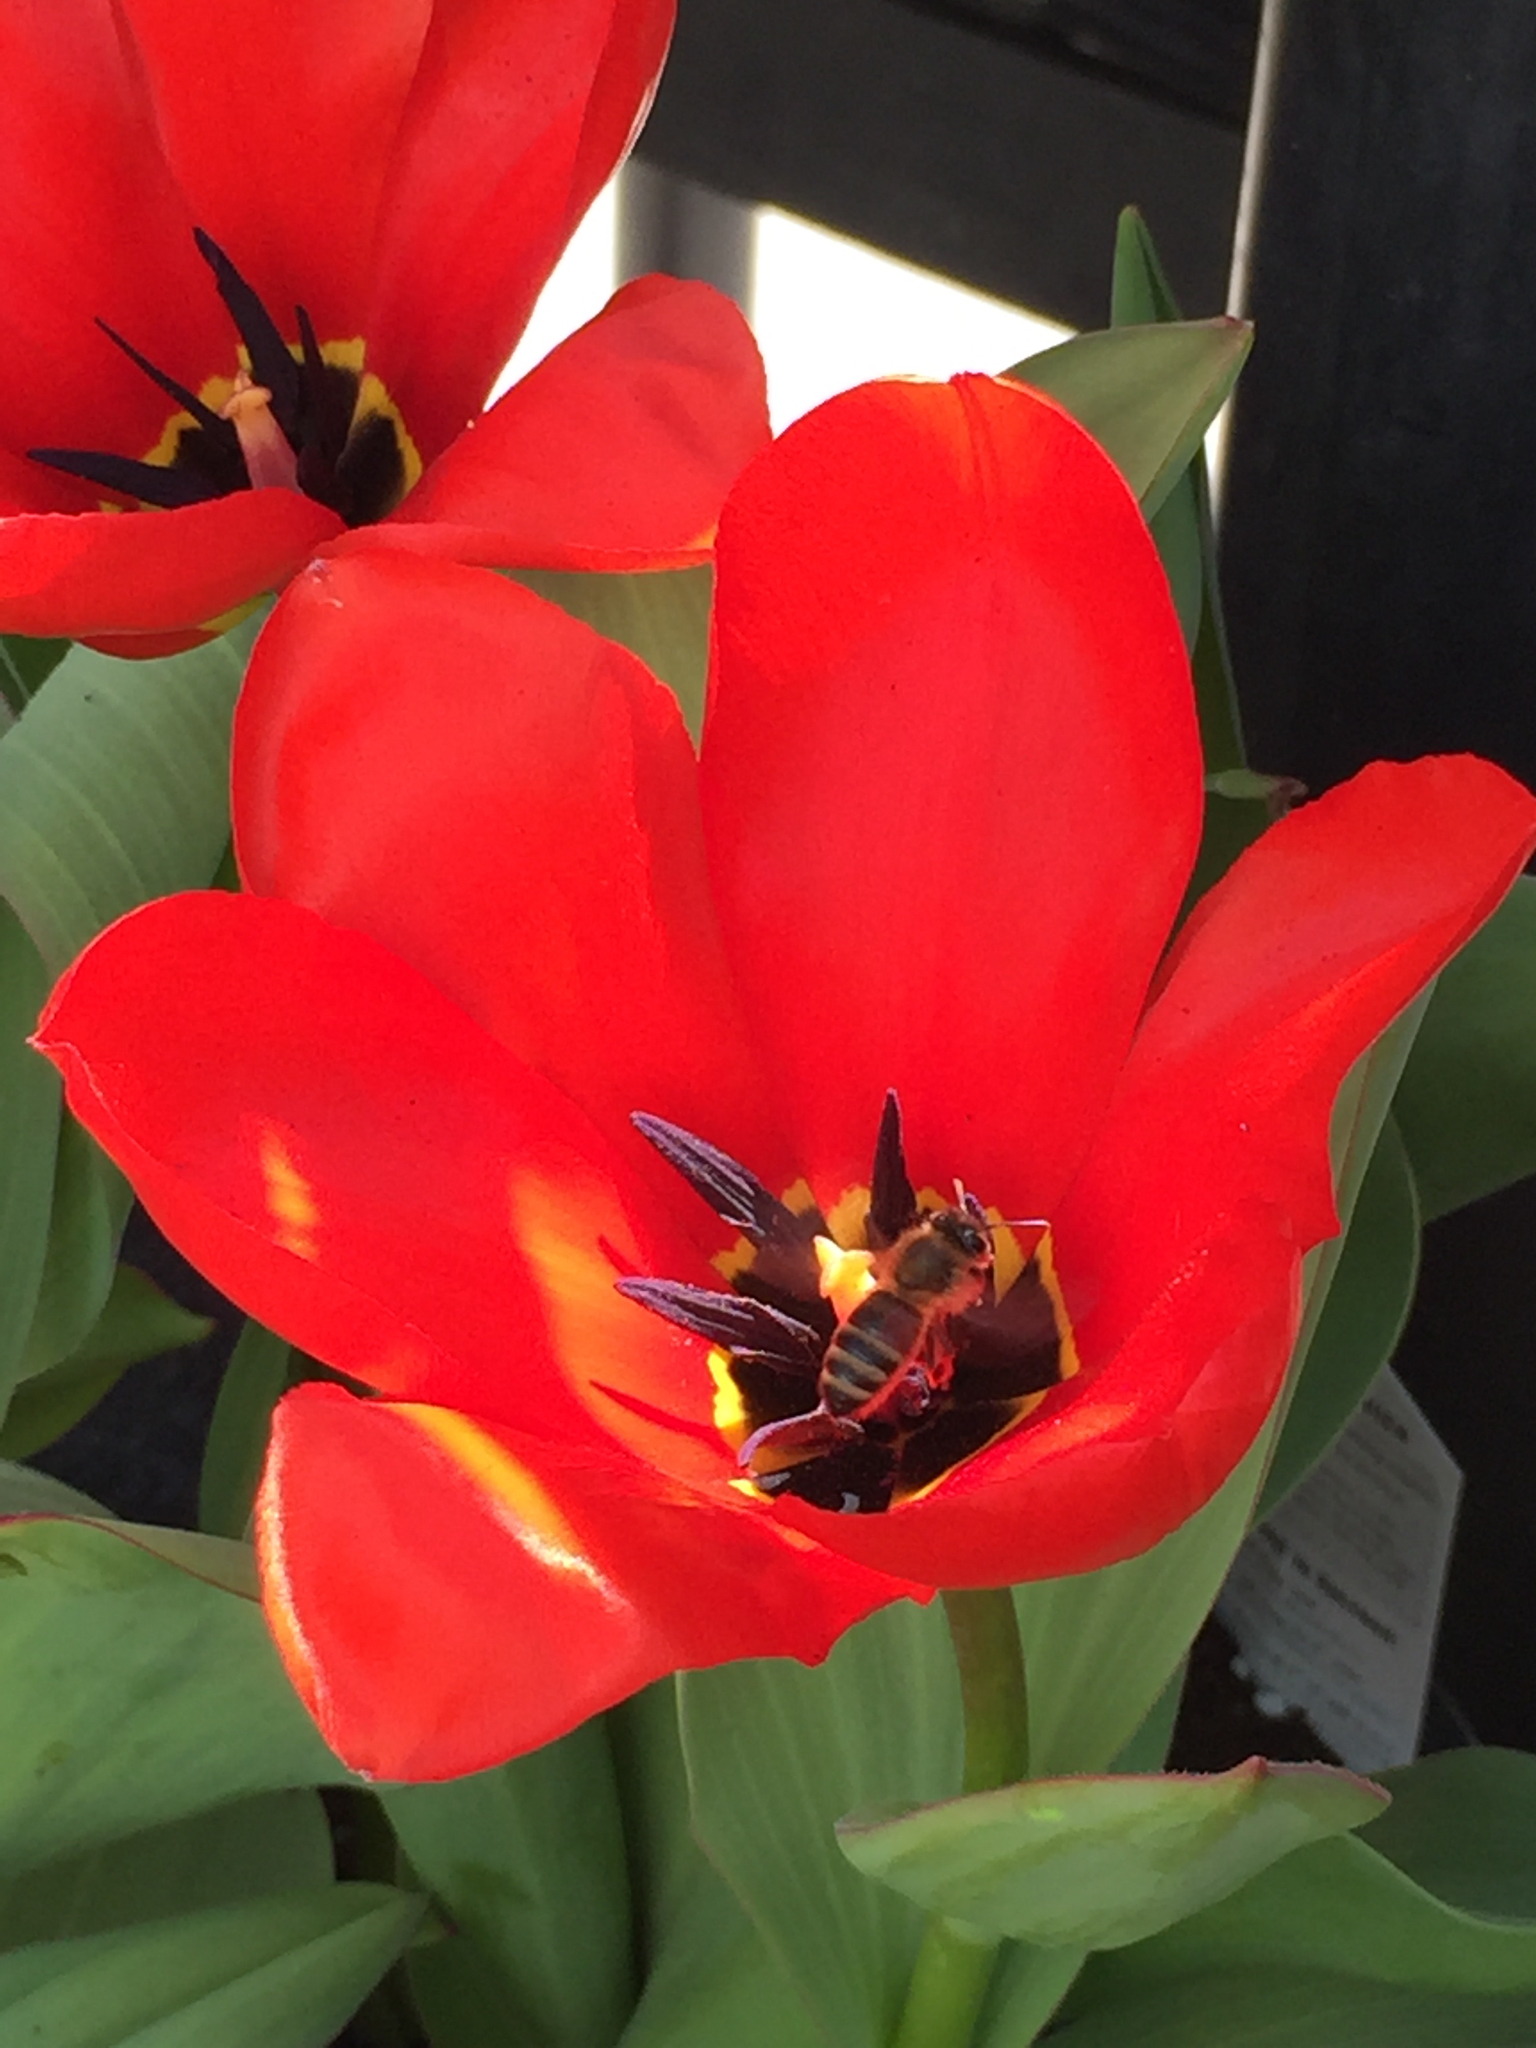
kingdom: Animalia
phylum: Arthropoda
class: Insecta
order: Hymenoptera
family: Apidae
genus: Apis
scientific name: Apis mellifera
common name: Honey bee
